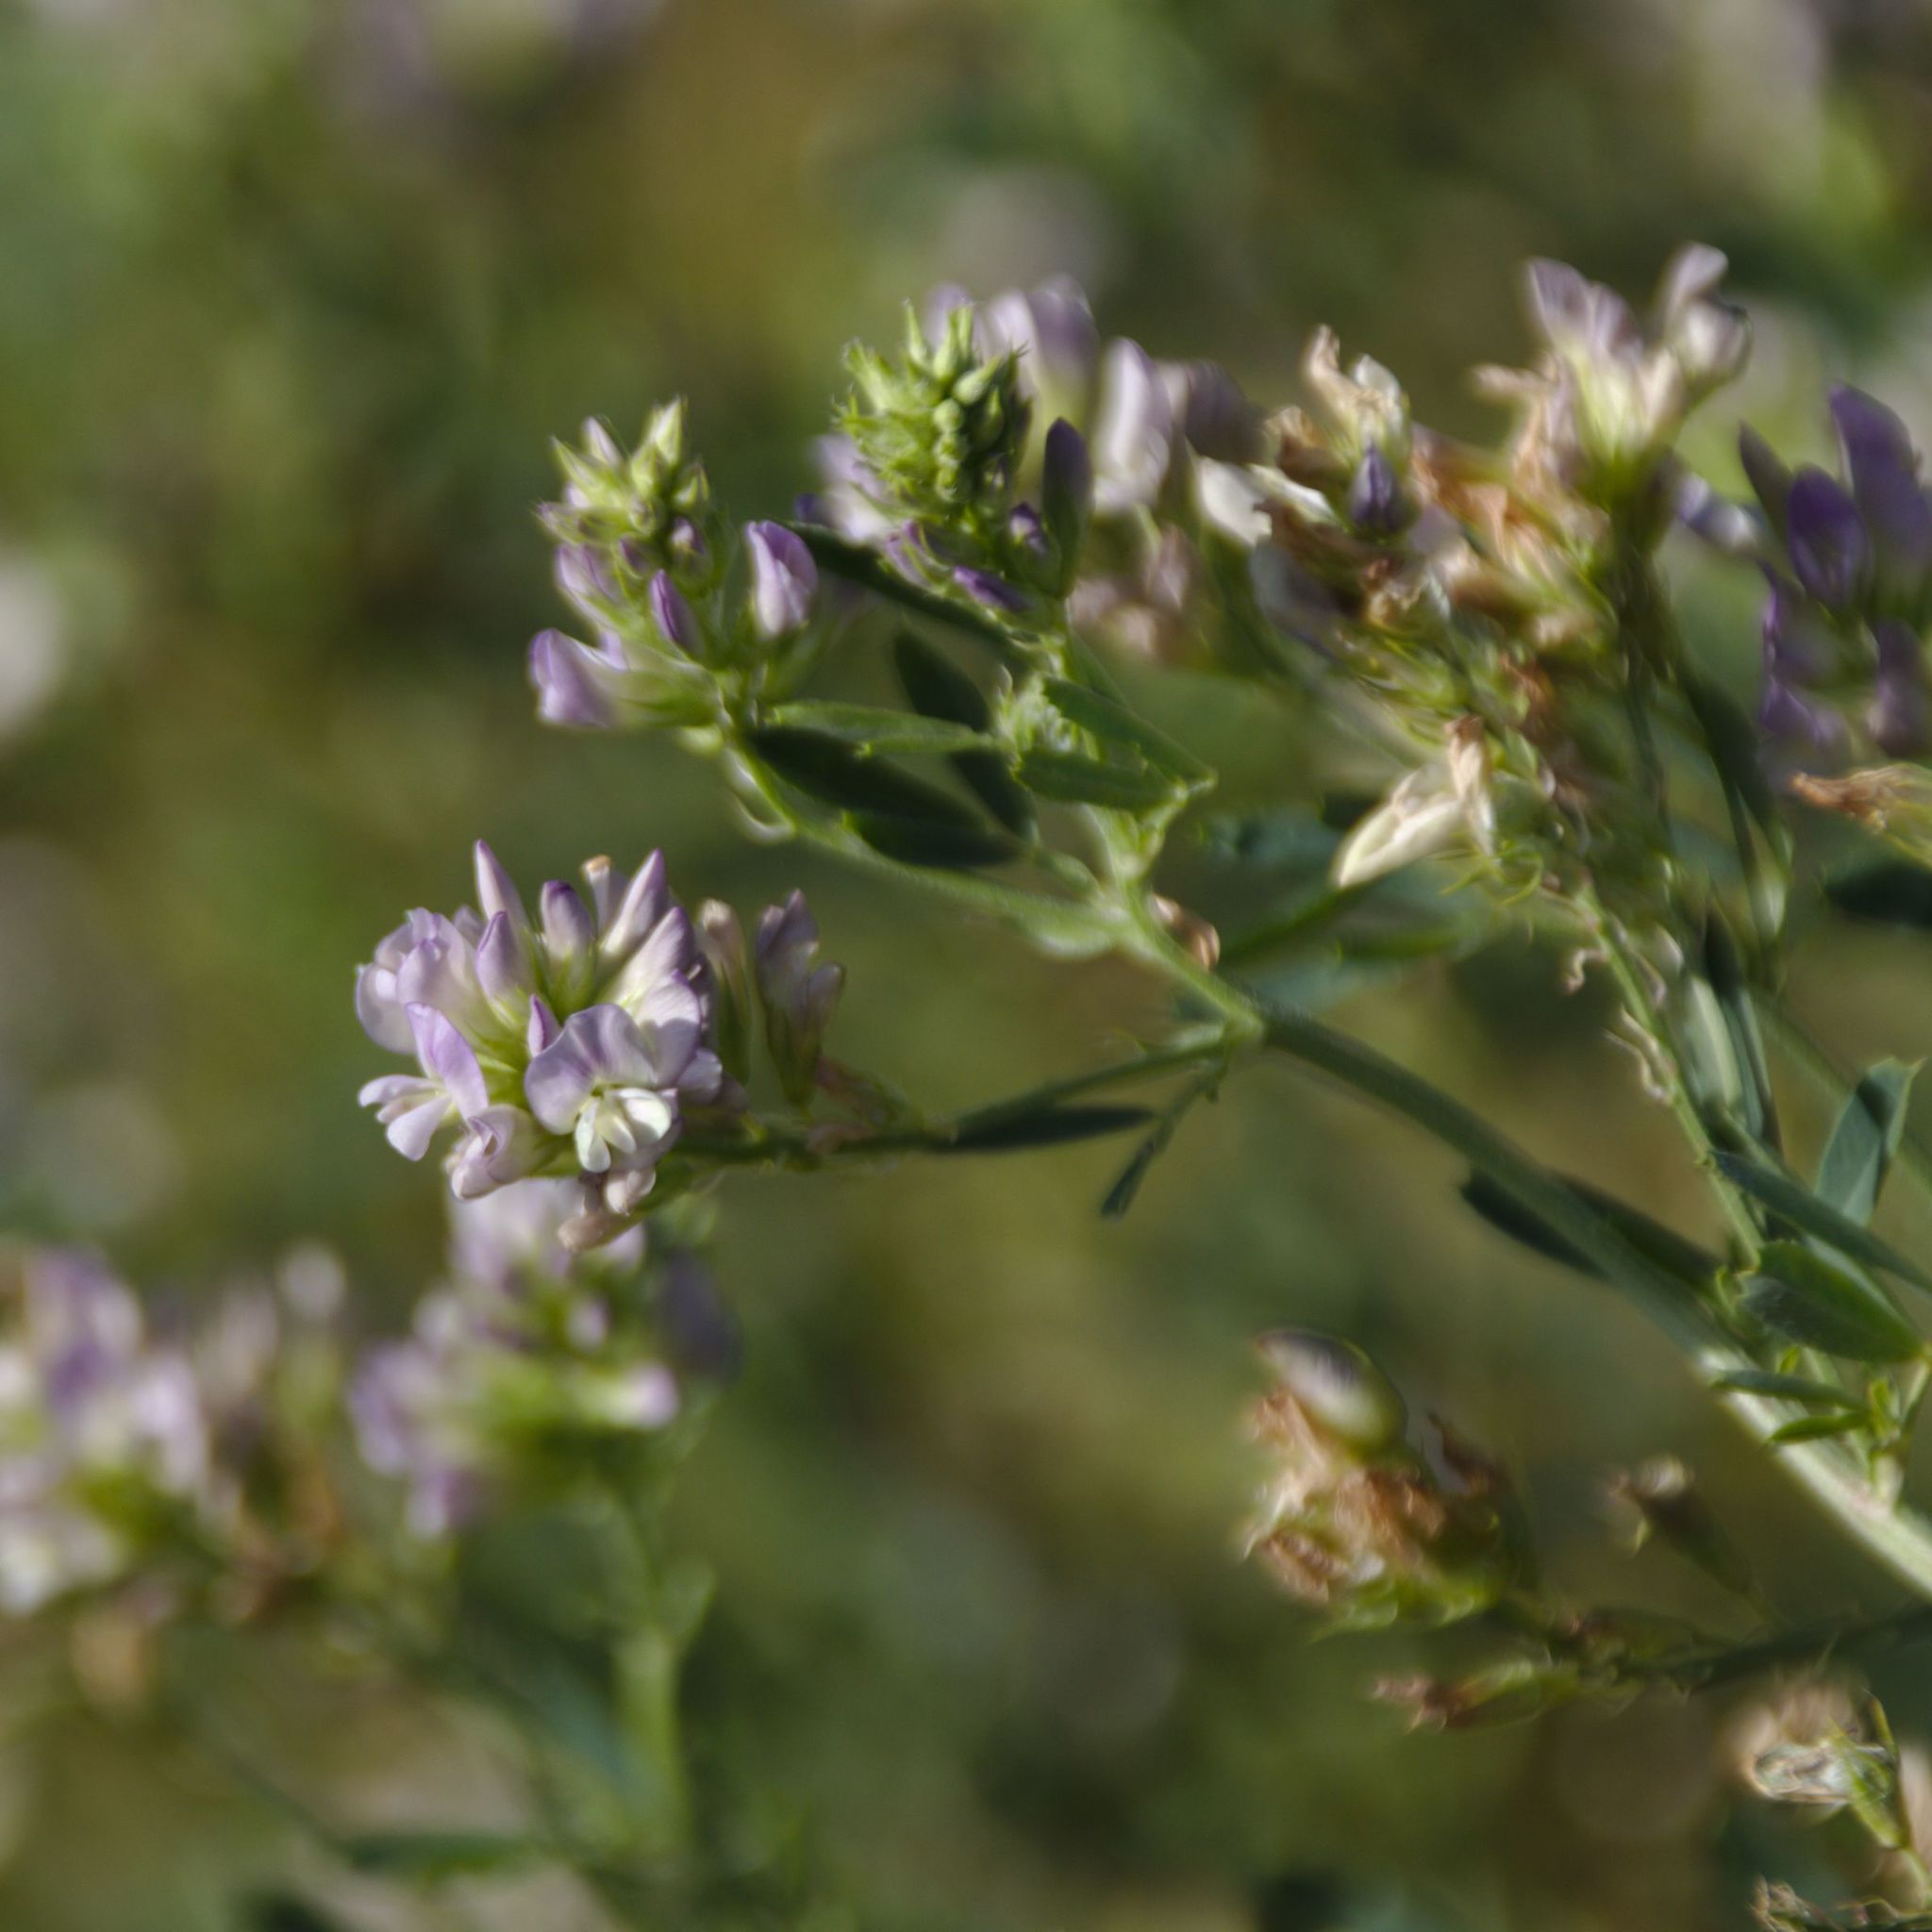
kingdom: Plantae
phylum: Tracheophyta
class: Magnoliopsida
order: Fabales
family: Fabaceae
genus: Medicago
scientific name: Medicago varia
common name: Sand lucerne
